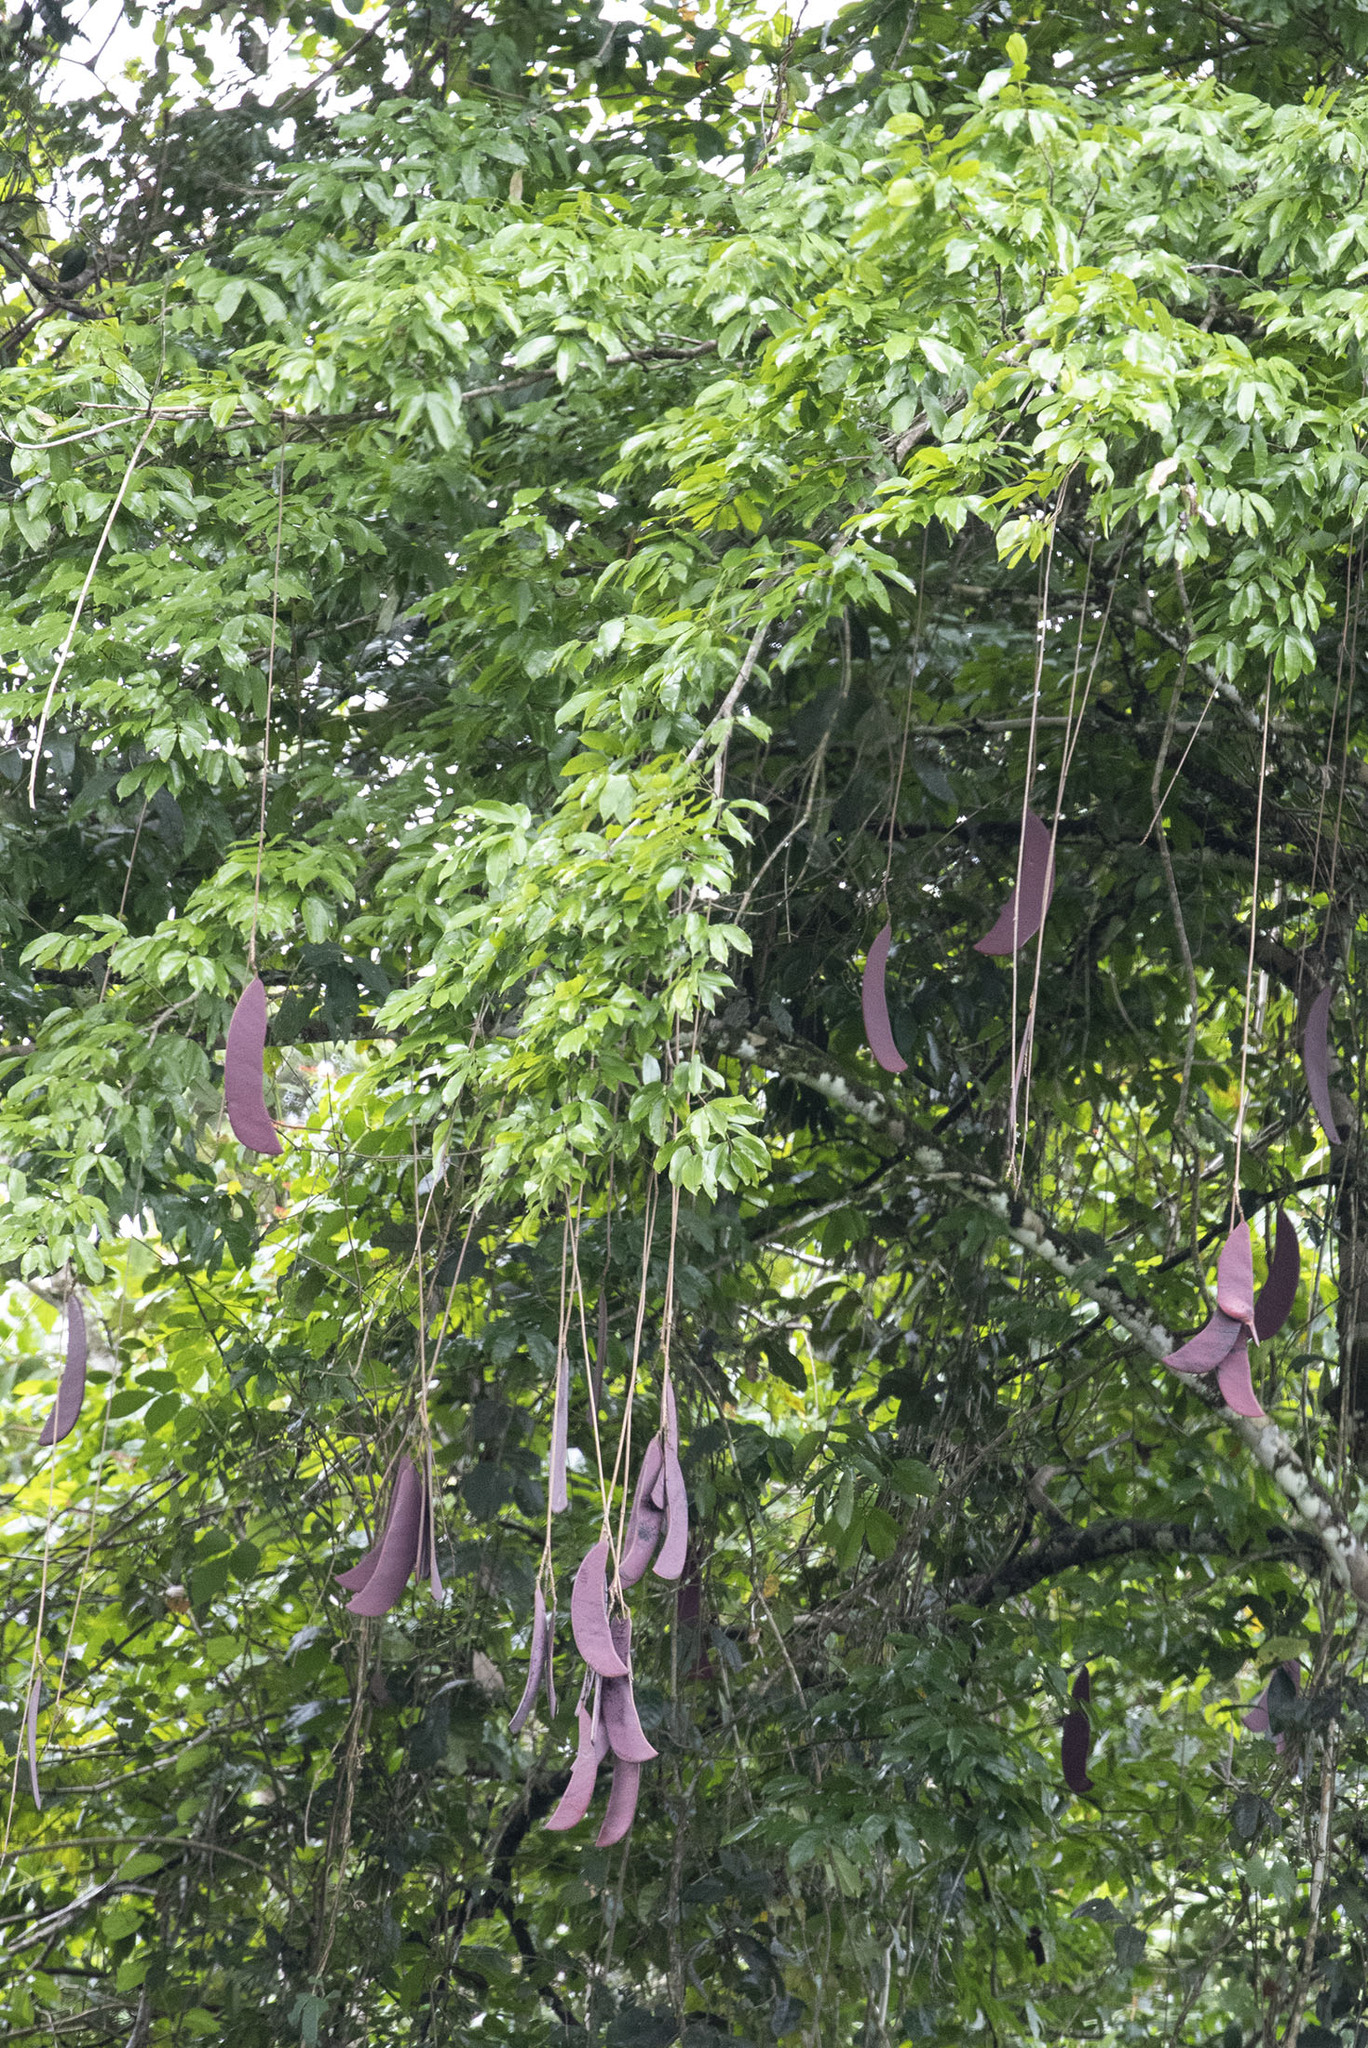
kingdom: Plantae
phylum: Tracheophyta
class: Magnoliopsida
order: Fabales
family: Fabaceae
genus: Eperua
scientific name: Eperua falcata
